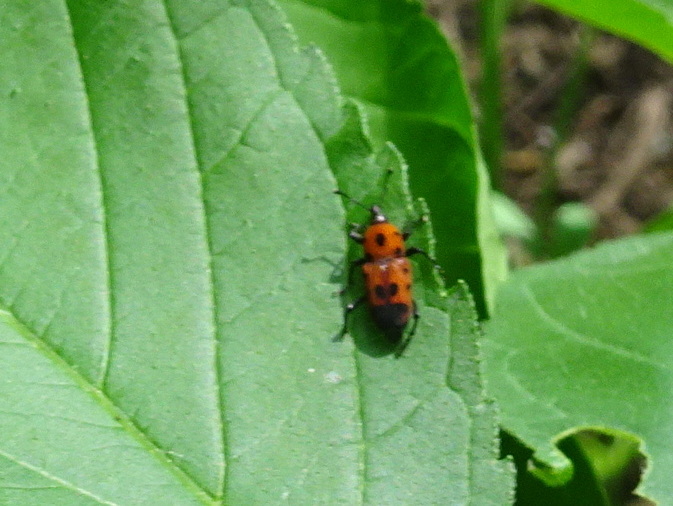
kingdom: Animalia
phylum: Arthropoda
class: Insecta
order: Coleoptera
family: Dryophthoridae
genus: Rhodobaenus
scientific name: Rhodobaenus quinquepunctatus
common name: Cocklebur weevil
